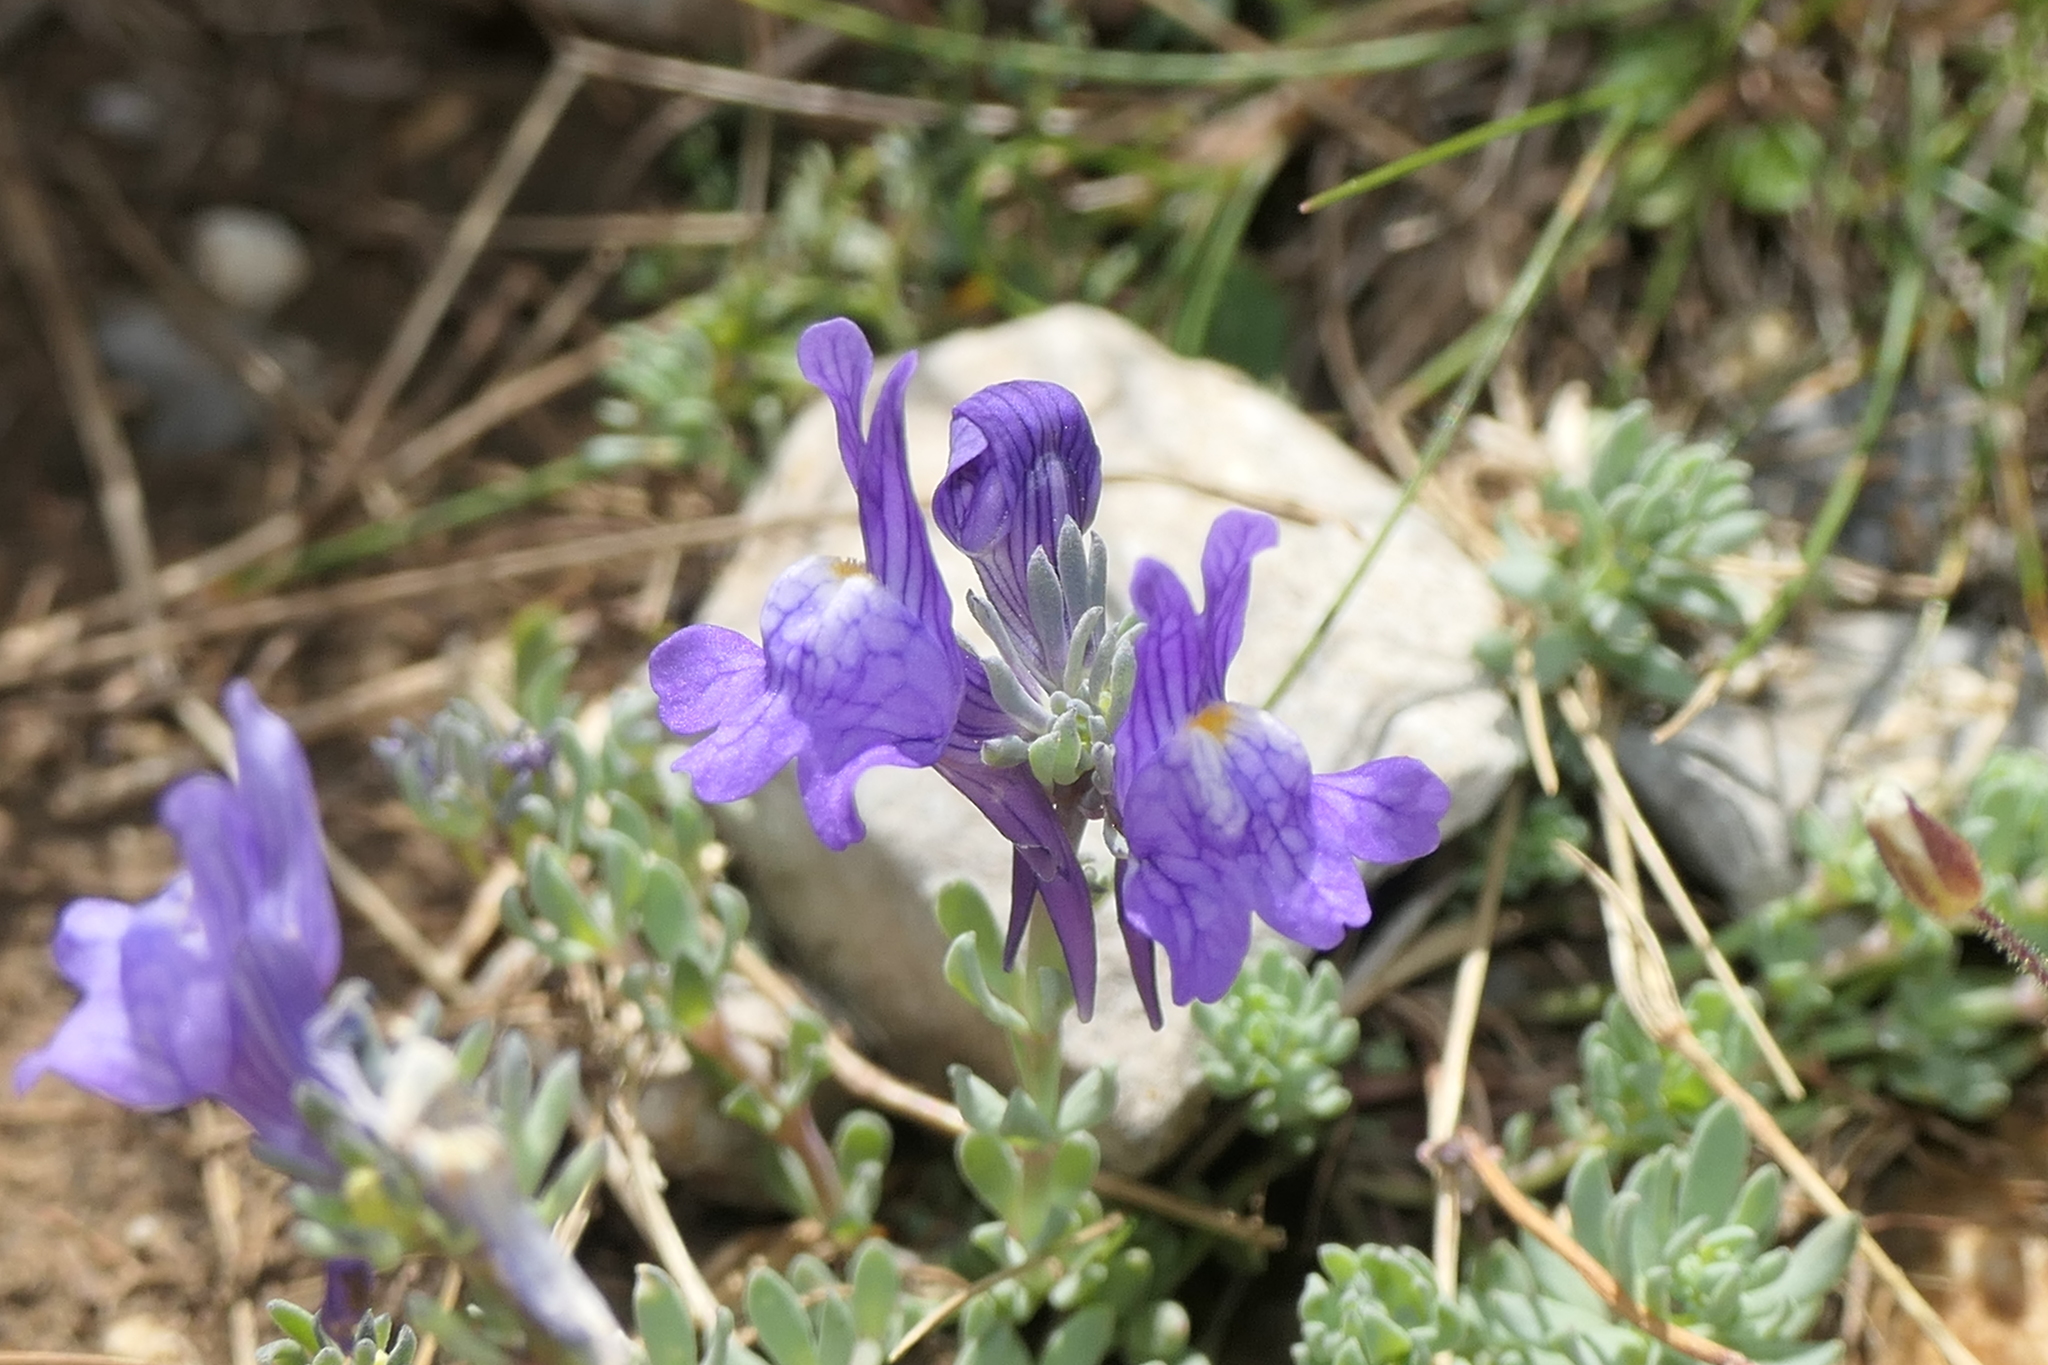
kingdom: Plantae
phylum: Tracheophyta
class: Magnoliopsida
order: Lamiales
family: Plantaginaceae
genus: Linaria
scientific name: Linaria alpina
